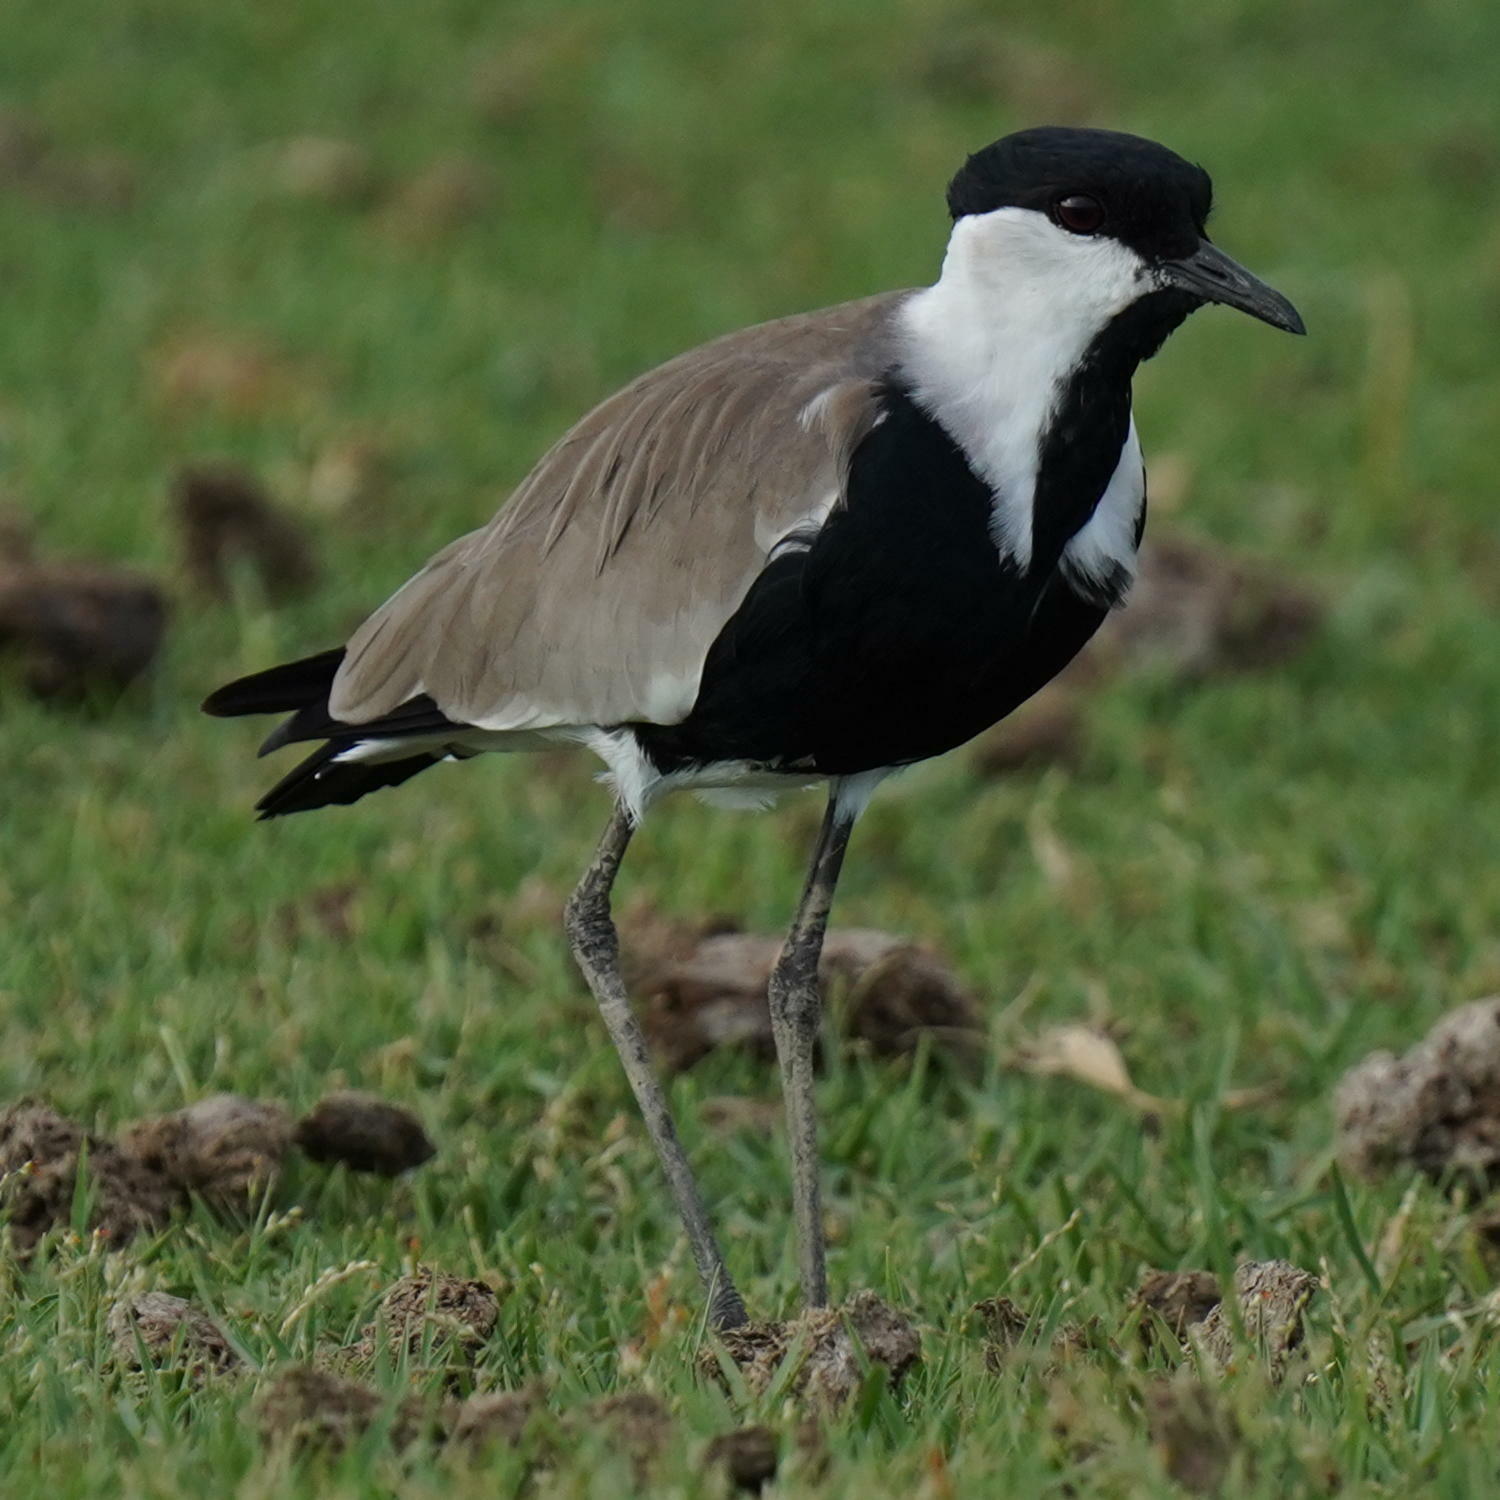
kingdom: Animalia
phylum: Chordata
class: Aves
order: Charadriiformes
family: Charadriidae
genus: Vanellus
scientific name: Vanellus spinosus
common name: Spur-winged lapwing
